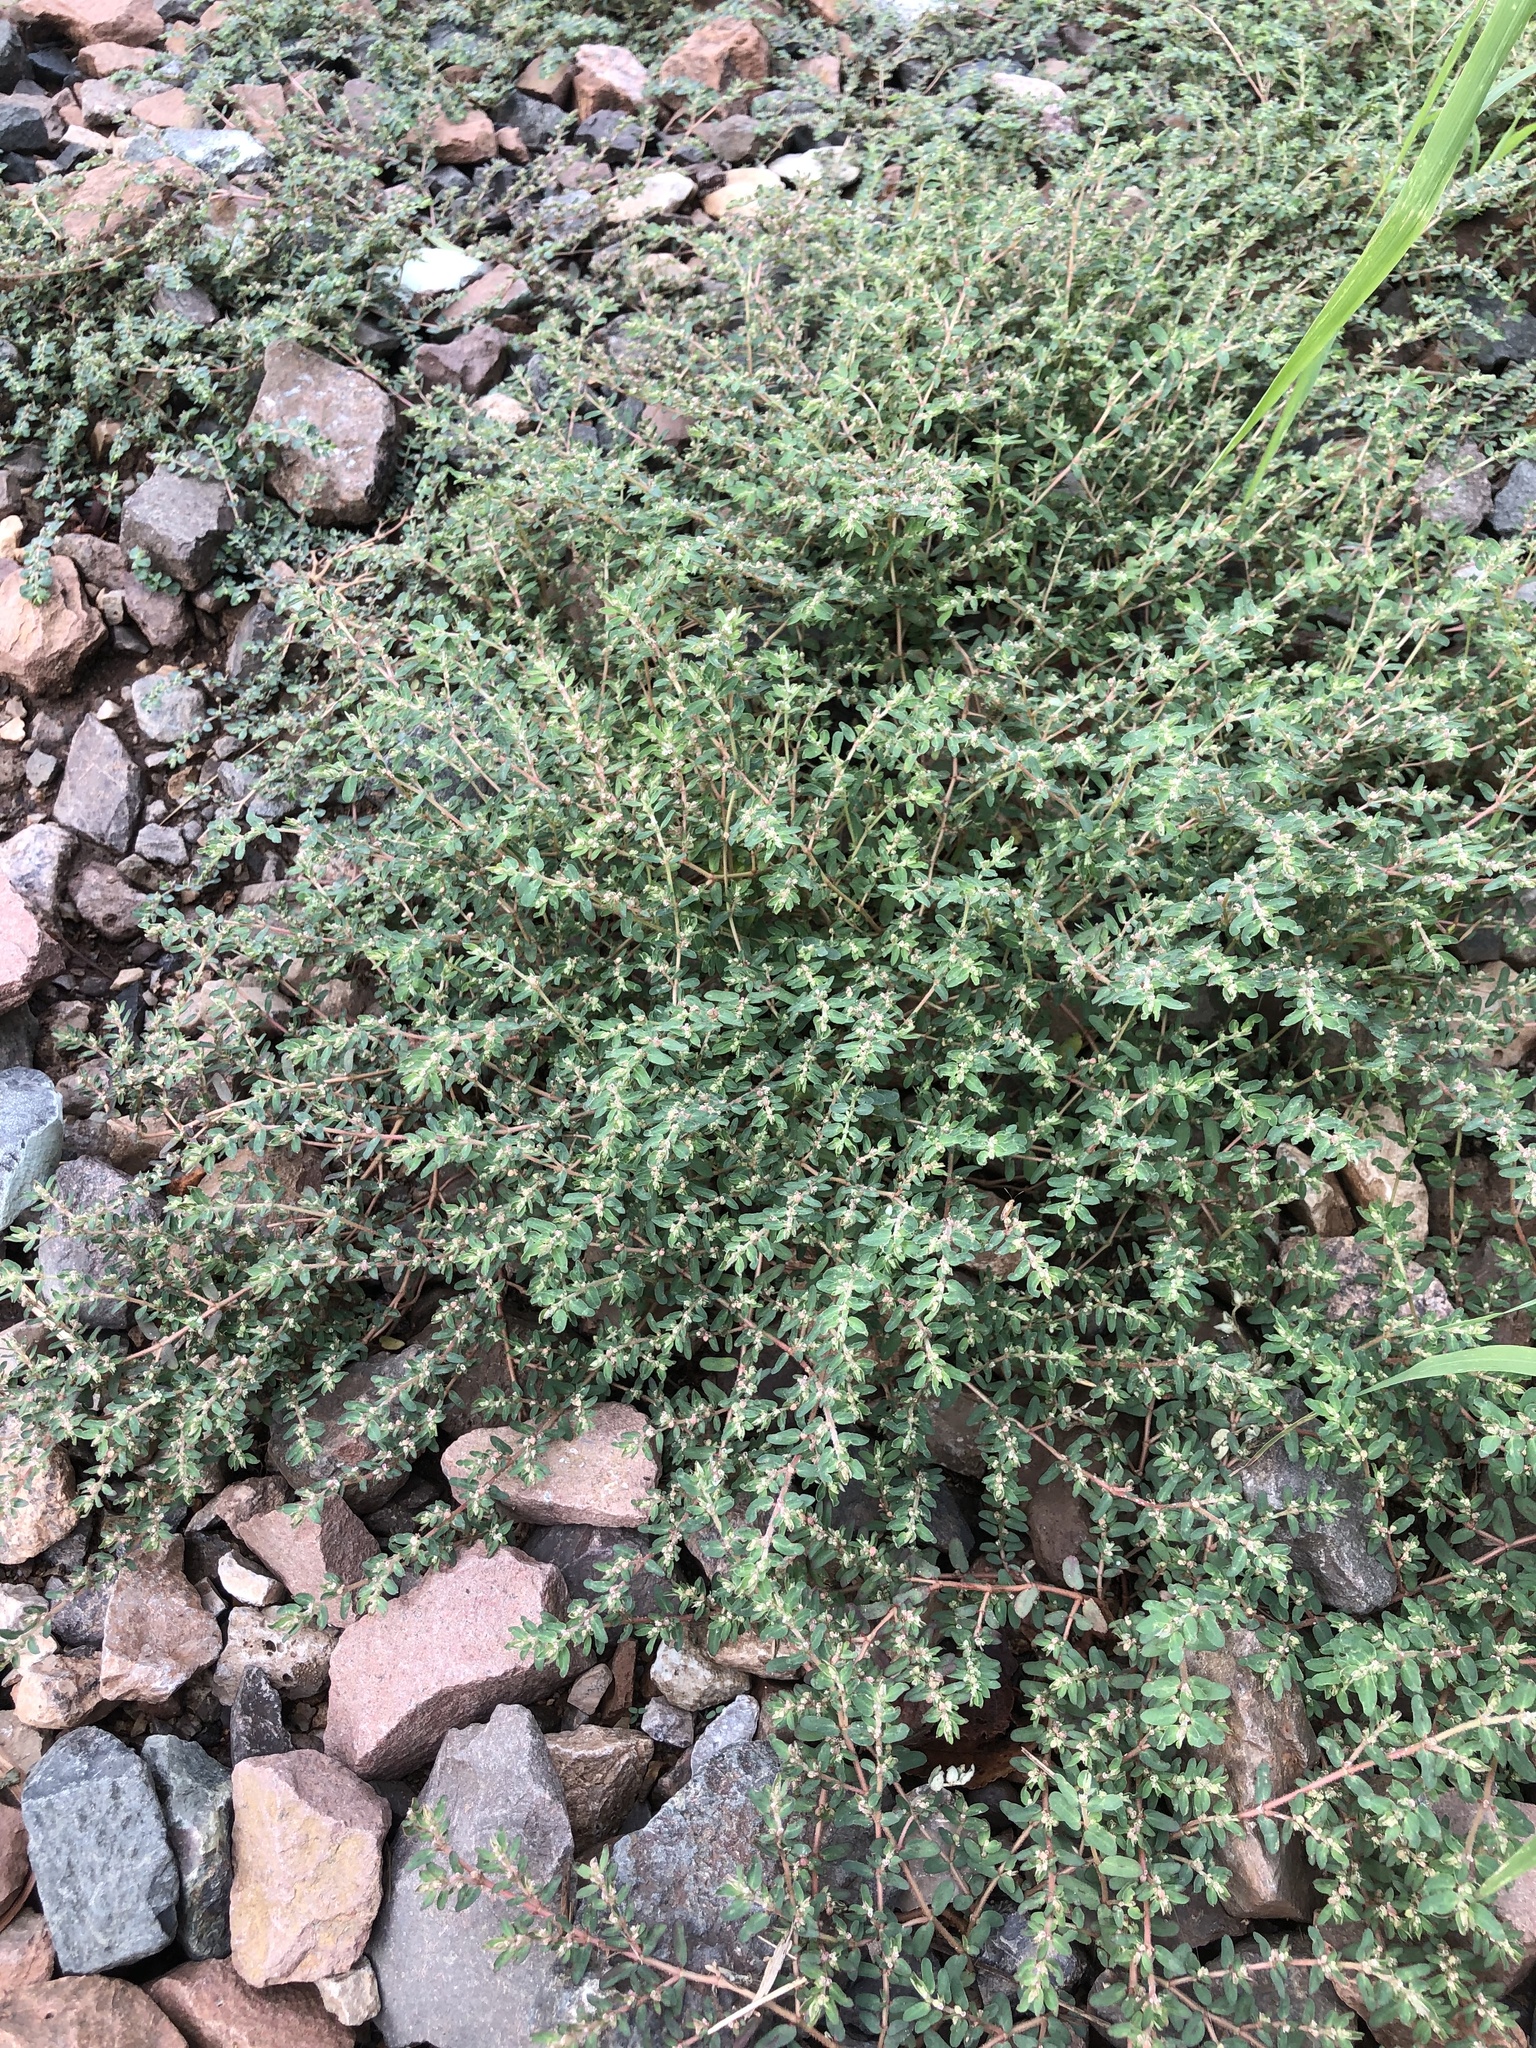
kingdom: Plantae
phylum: Tracheophyta
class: Magnoliopsida
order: Malpighiales
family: Euphorbiaceae
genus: Euphorbia
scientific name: Euphorbia maculata
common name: Spotted spurge
